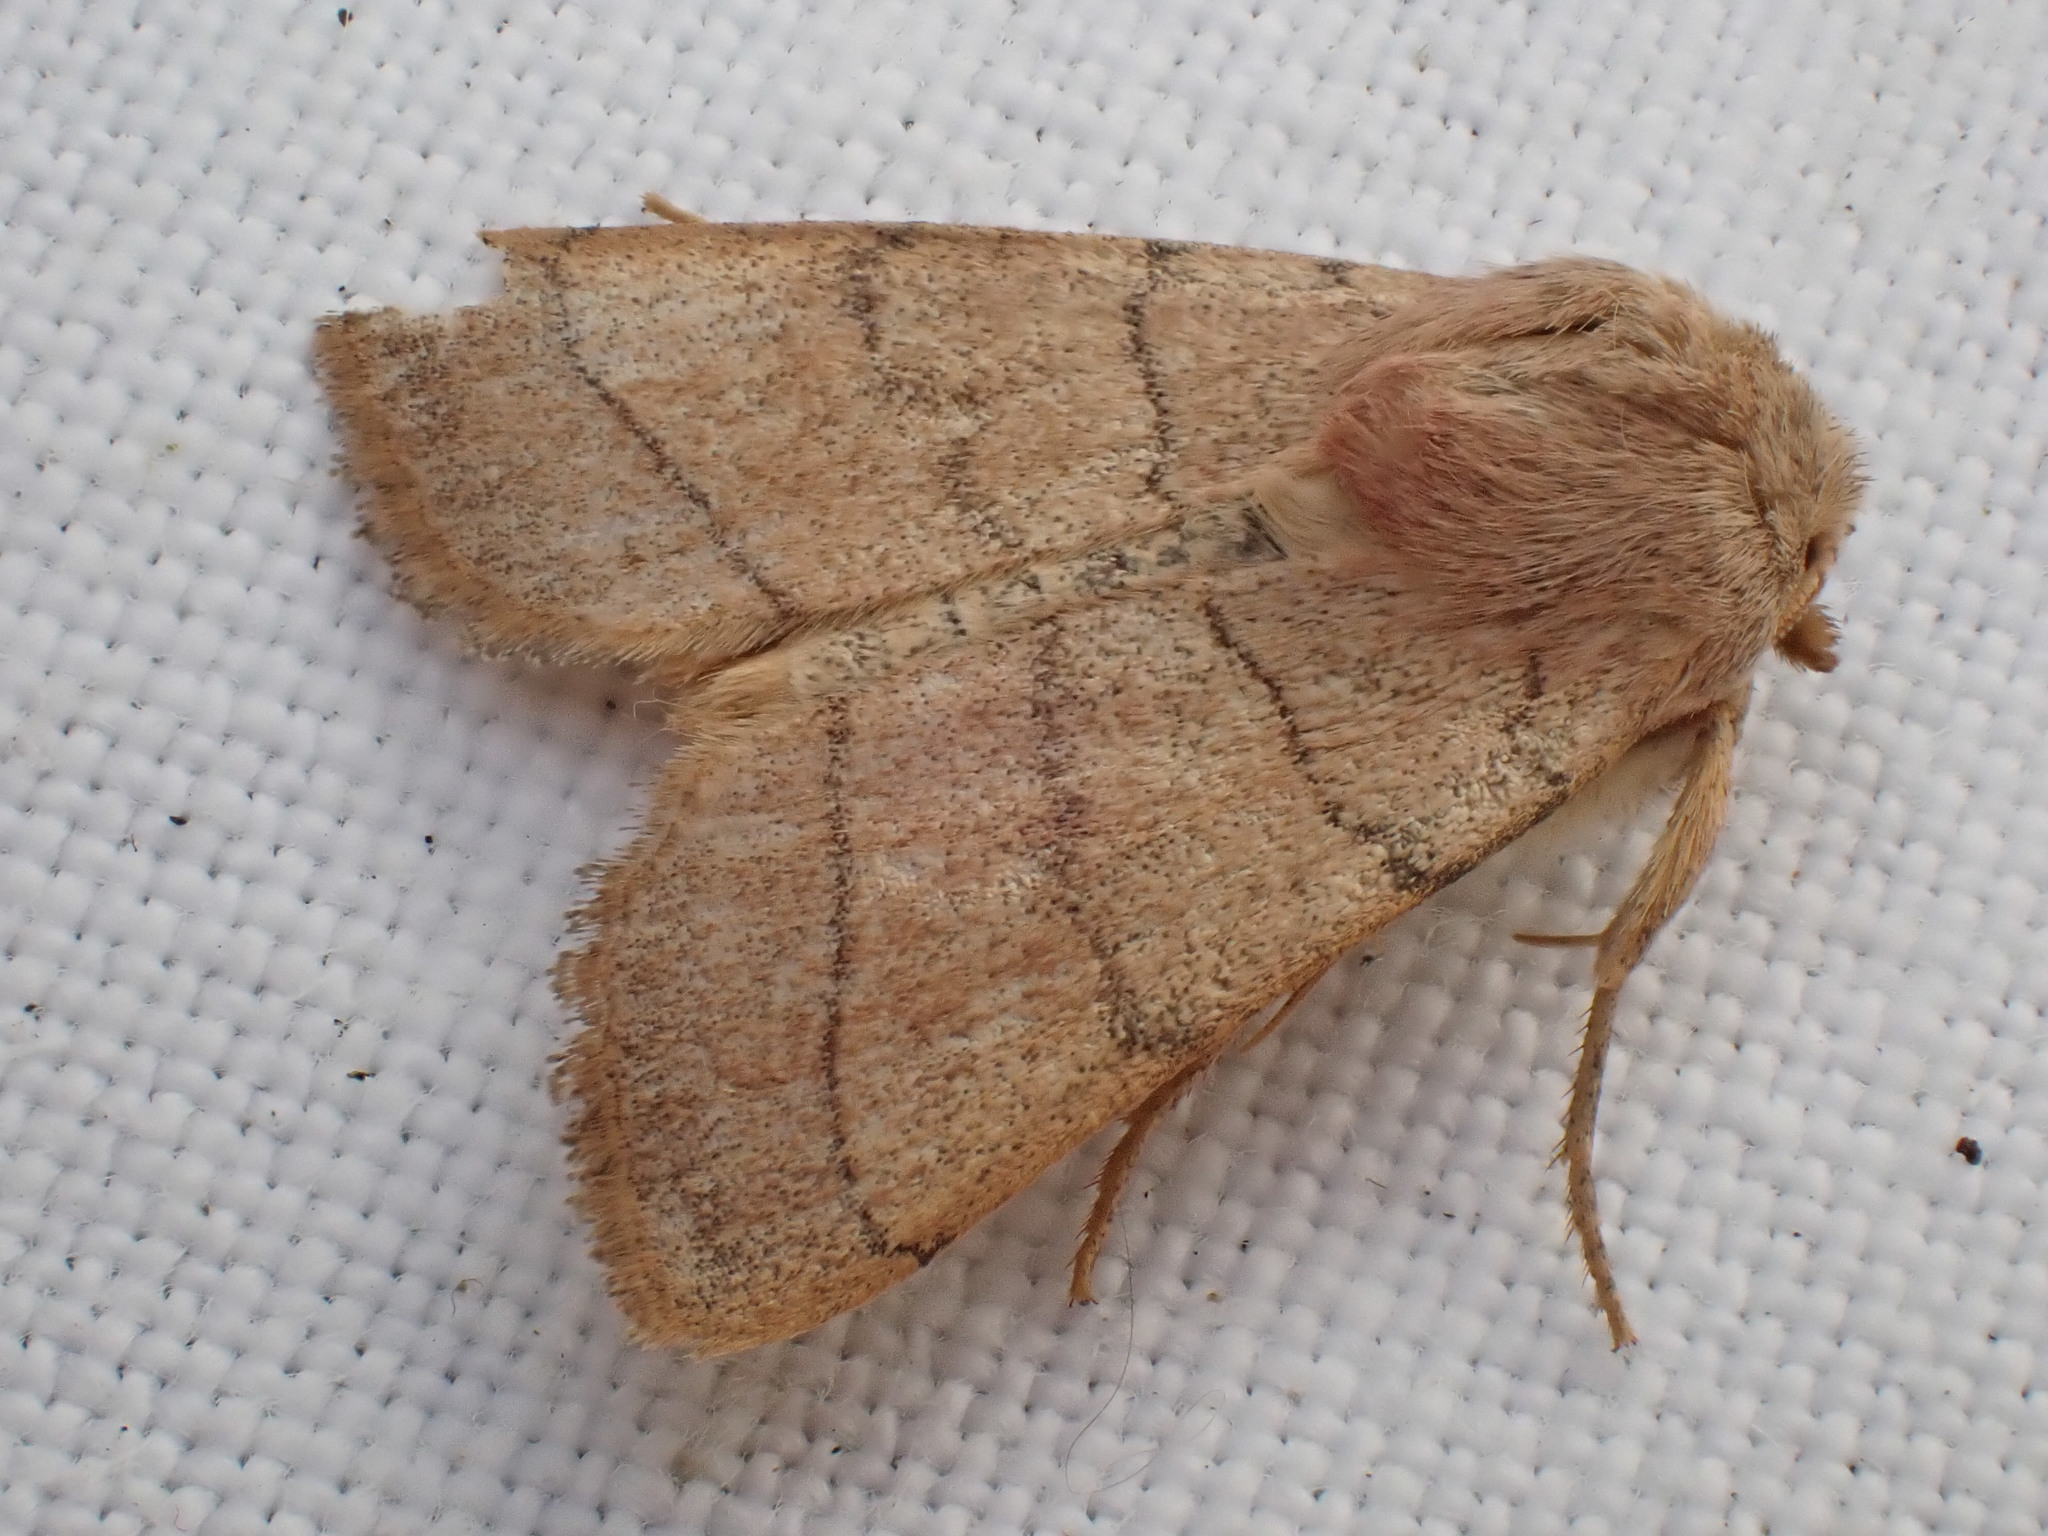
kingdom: Animalia
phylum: Arthropoda
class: Insecta
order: Lepidoptera
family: Noctuidae
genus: Charanyca
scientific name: Charanyca trigrammica
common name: Treble lines
